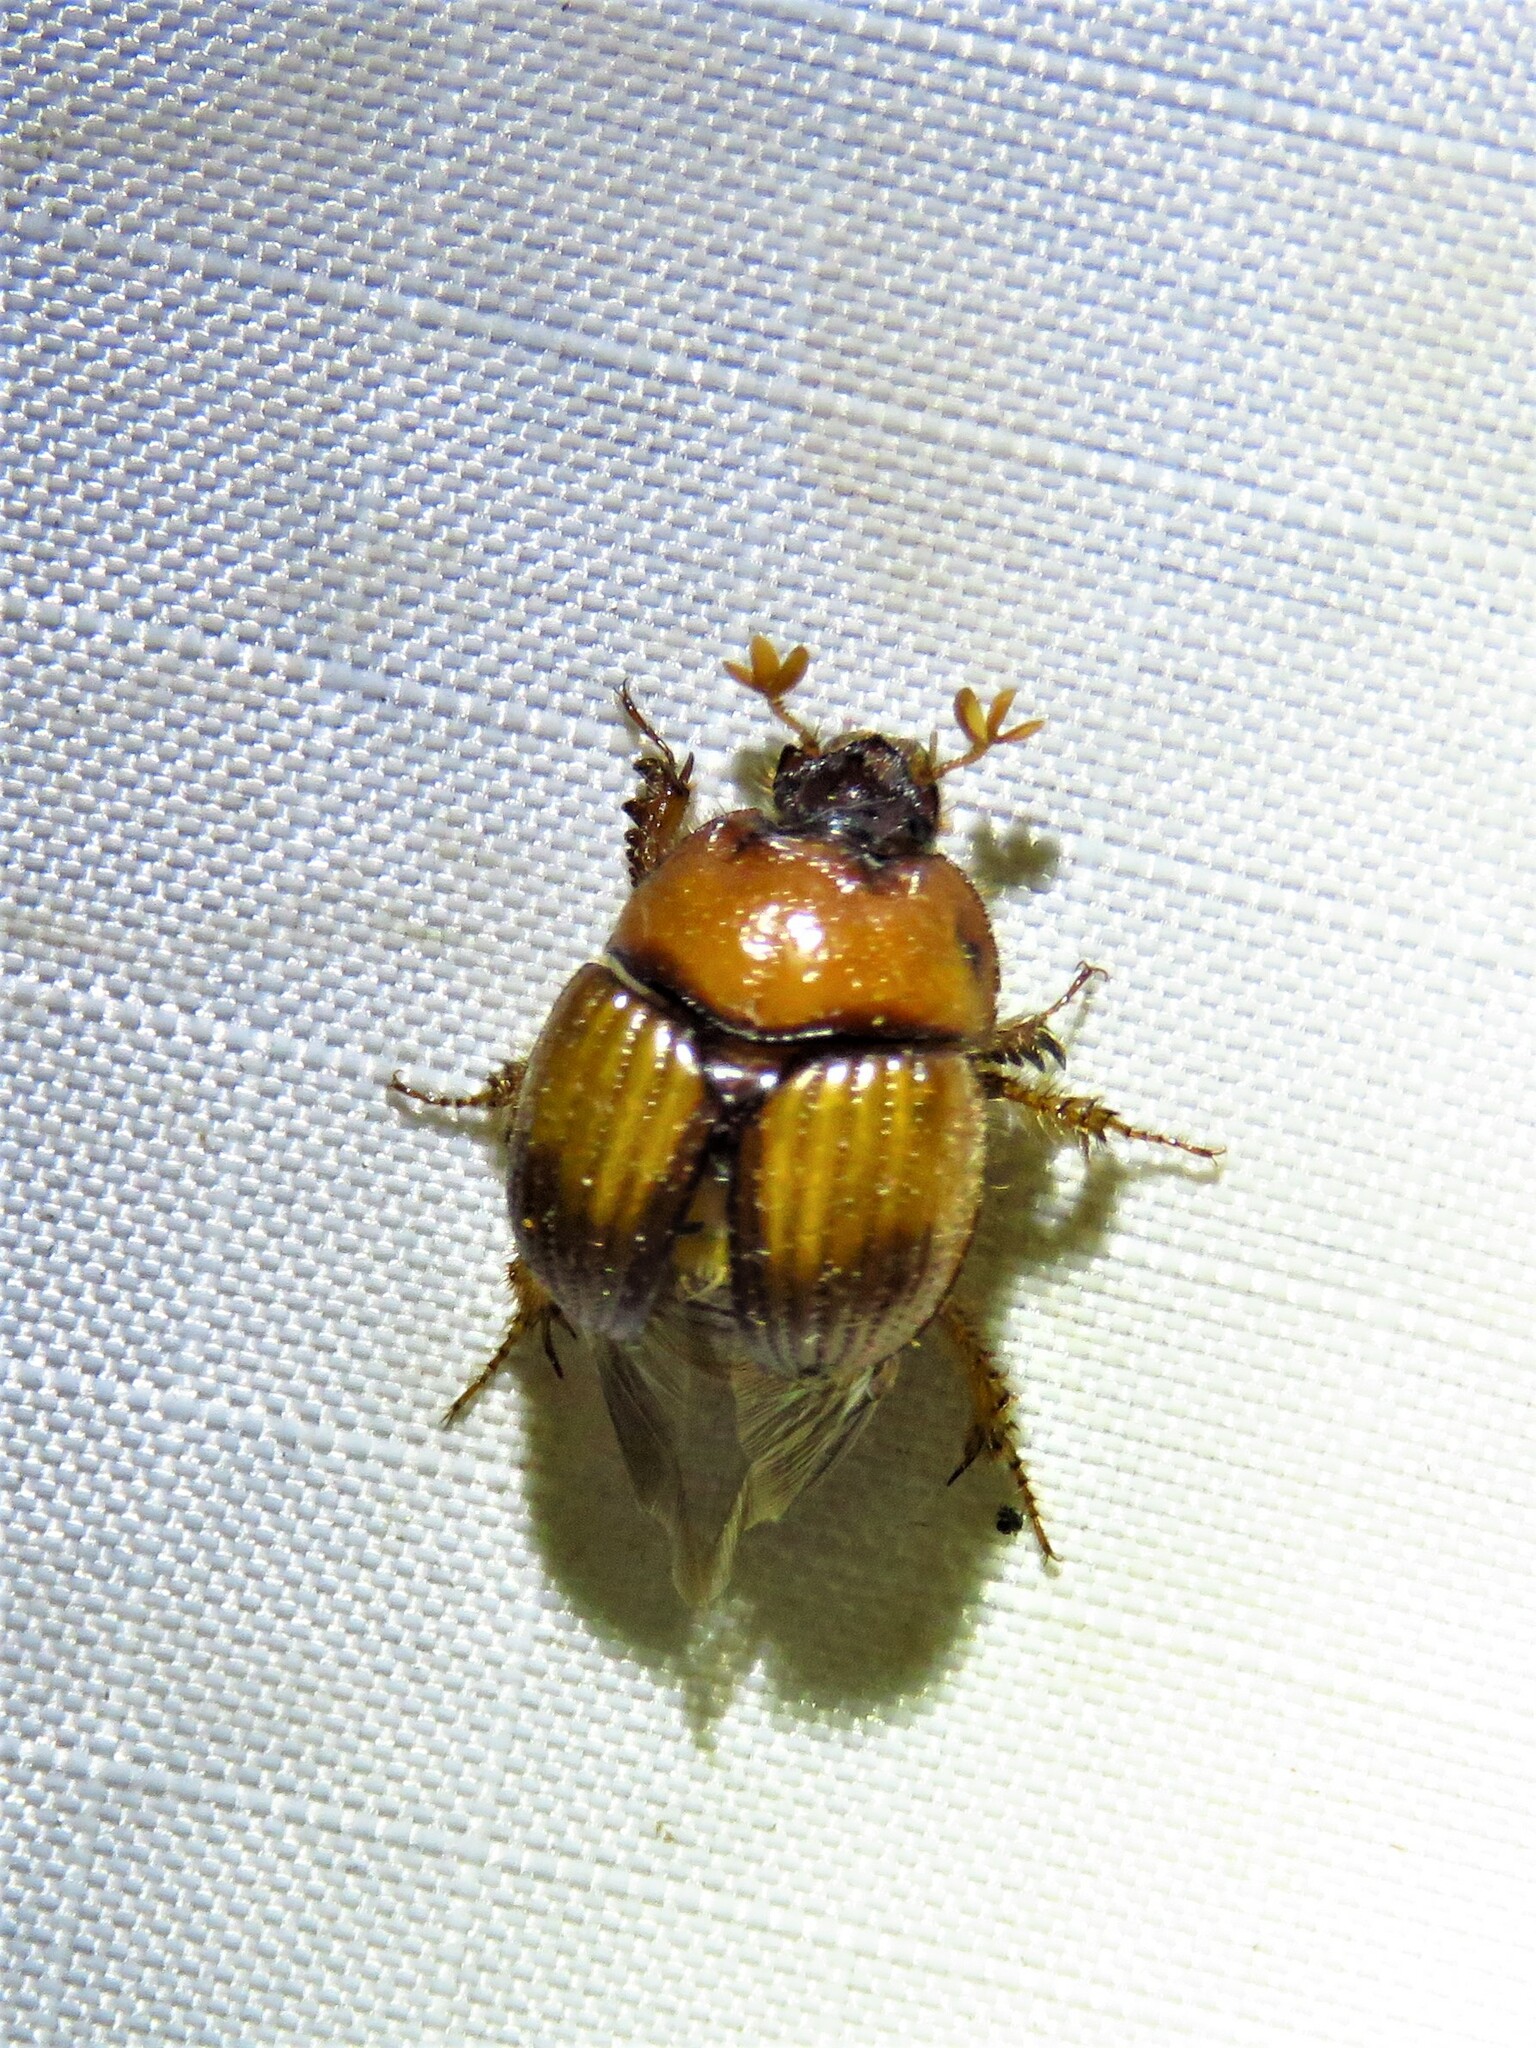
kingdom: Animalia
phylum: Arthropoda
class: Insecta
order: Coleoptera
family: Geotrupidae
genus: Bolbocerosoma
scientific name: Bolbocerosoma pusillum
